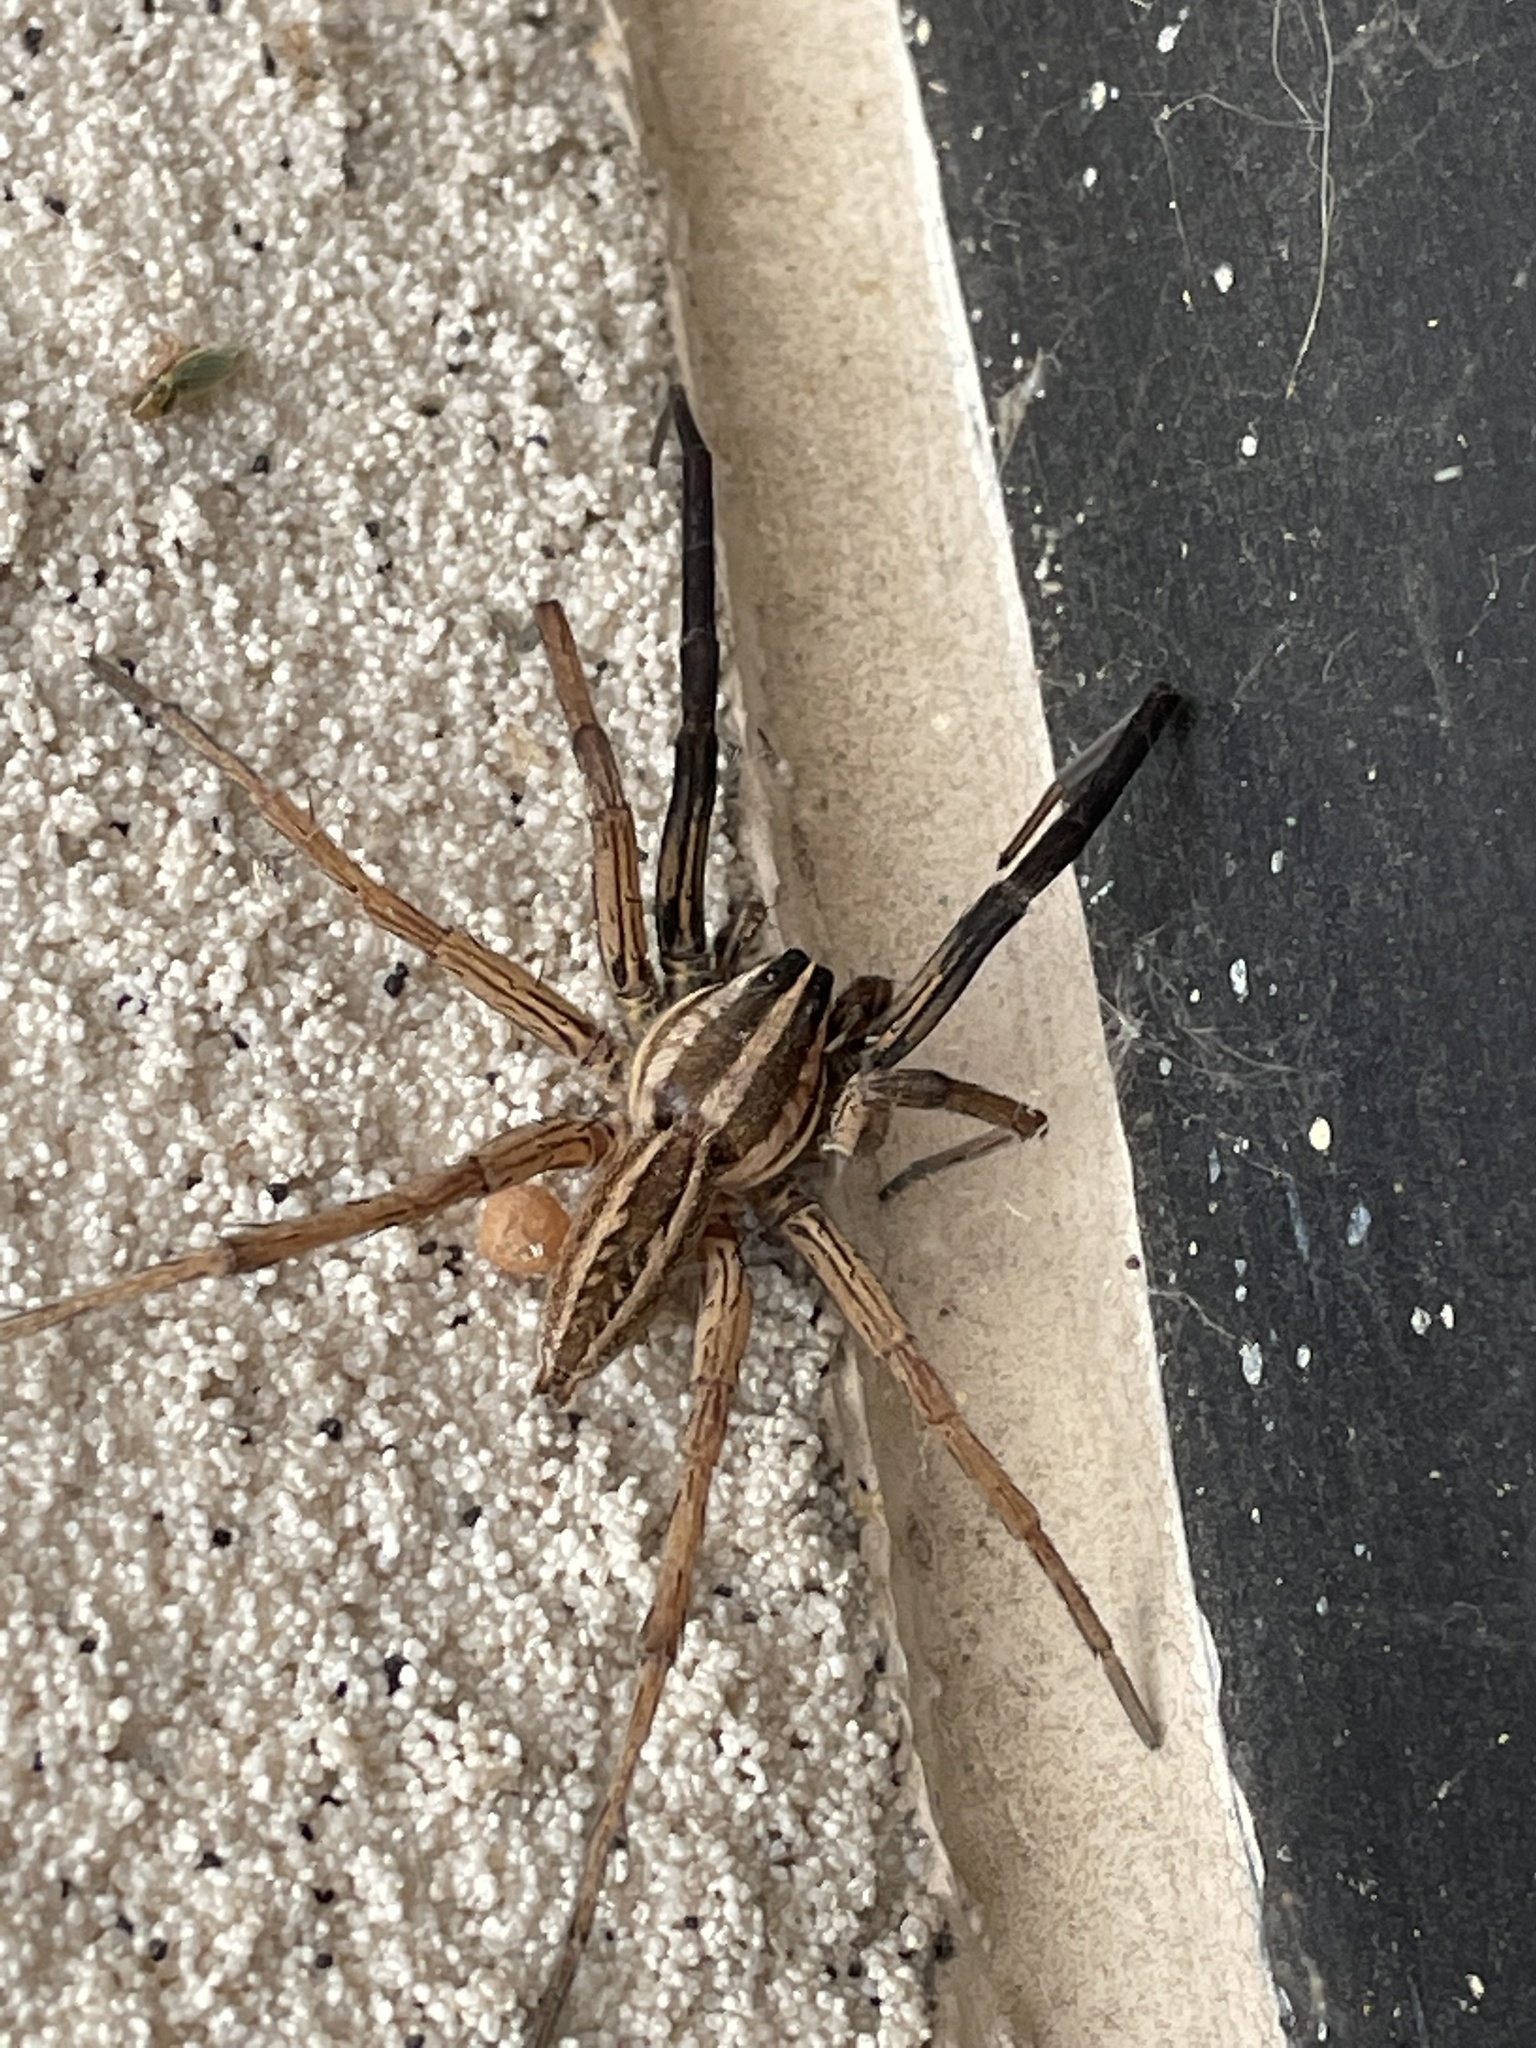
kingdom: Animalia
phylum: Arthropoda
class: Arachnida
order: Araneae
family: Lycosidae
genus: Rabidosa
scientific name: Rabidosa rabida
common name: Rabid wolf spider
